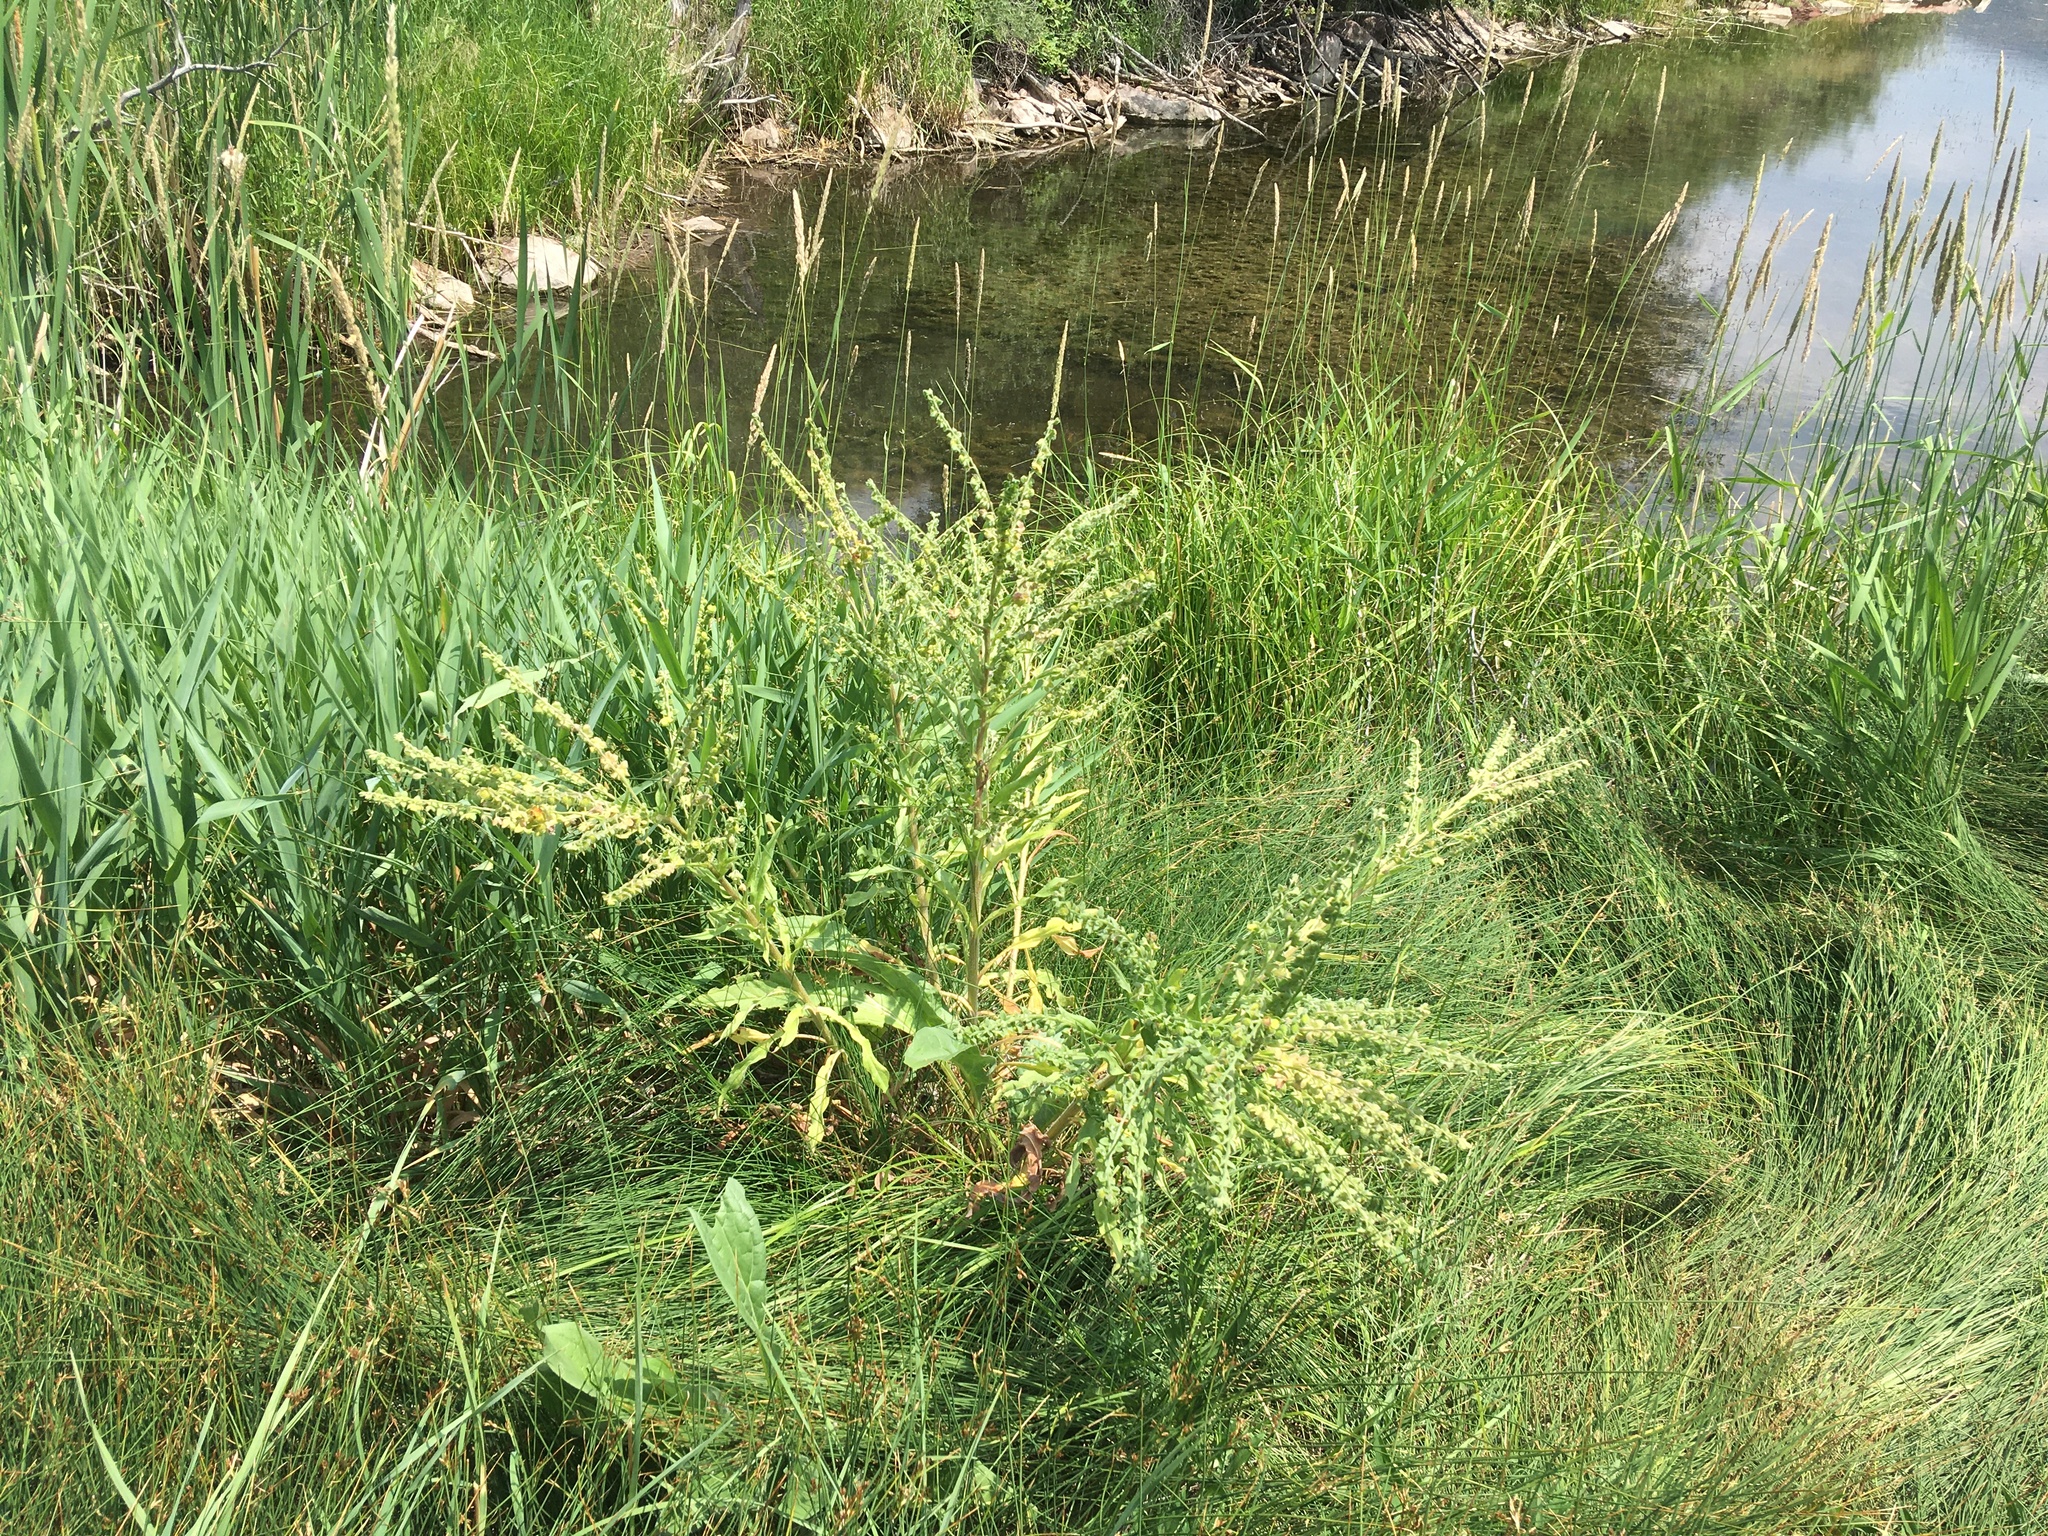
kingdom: Plantae
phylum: Tracheophyta
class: Magnoliopsida
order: Boraginales
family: Boraginaceae
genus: Cynoglossum
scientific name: Cynoglossum officinale
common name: Hound's-tongue
